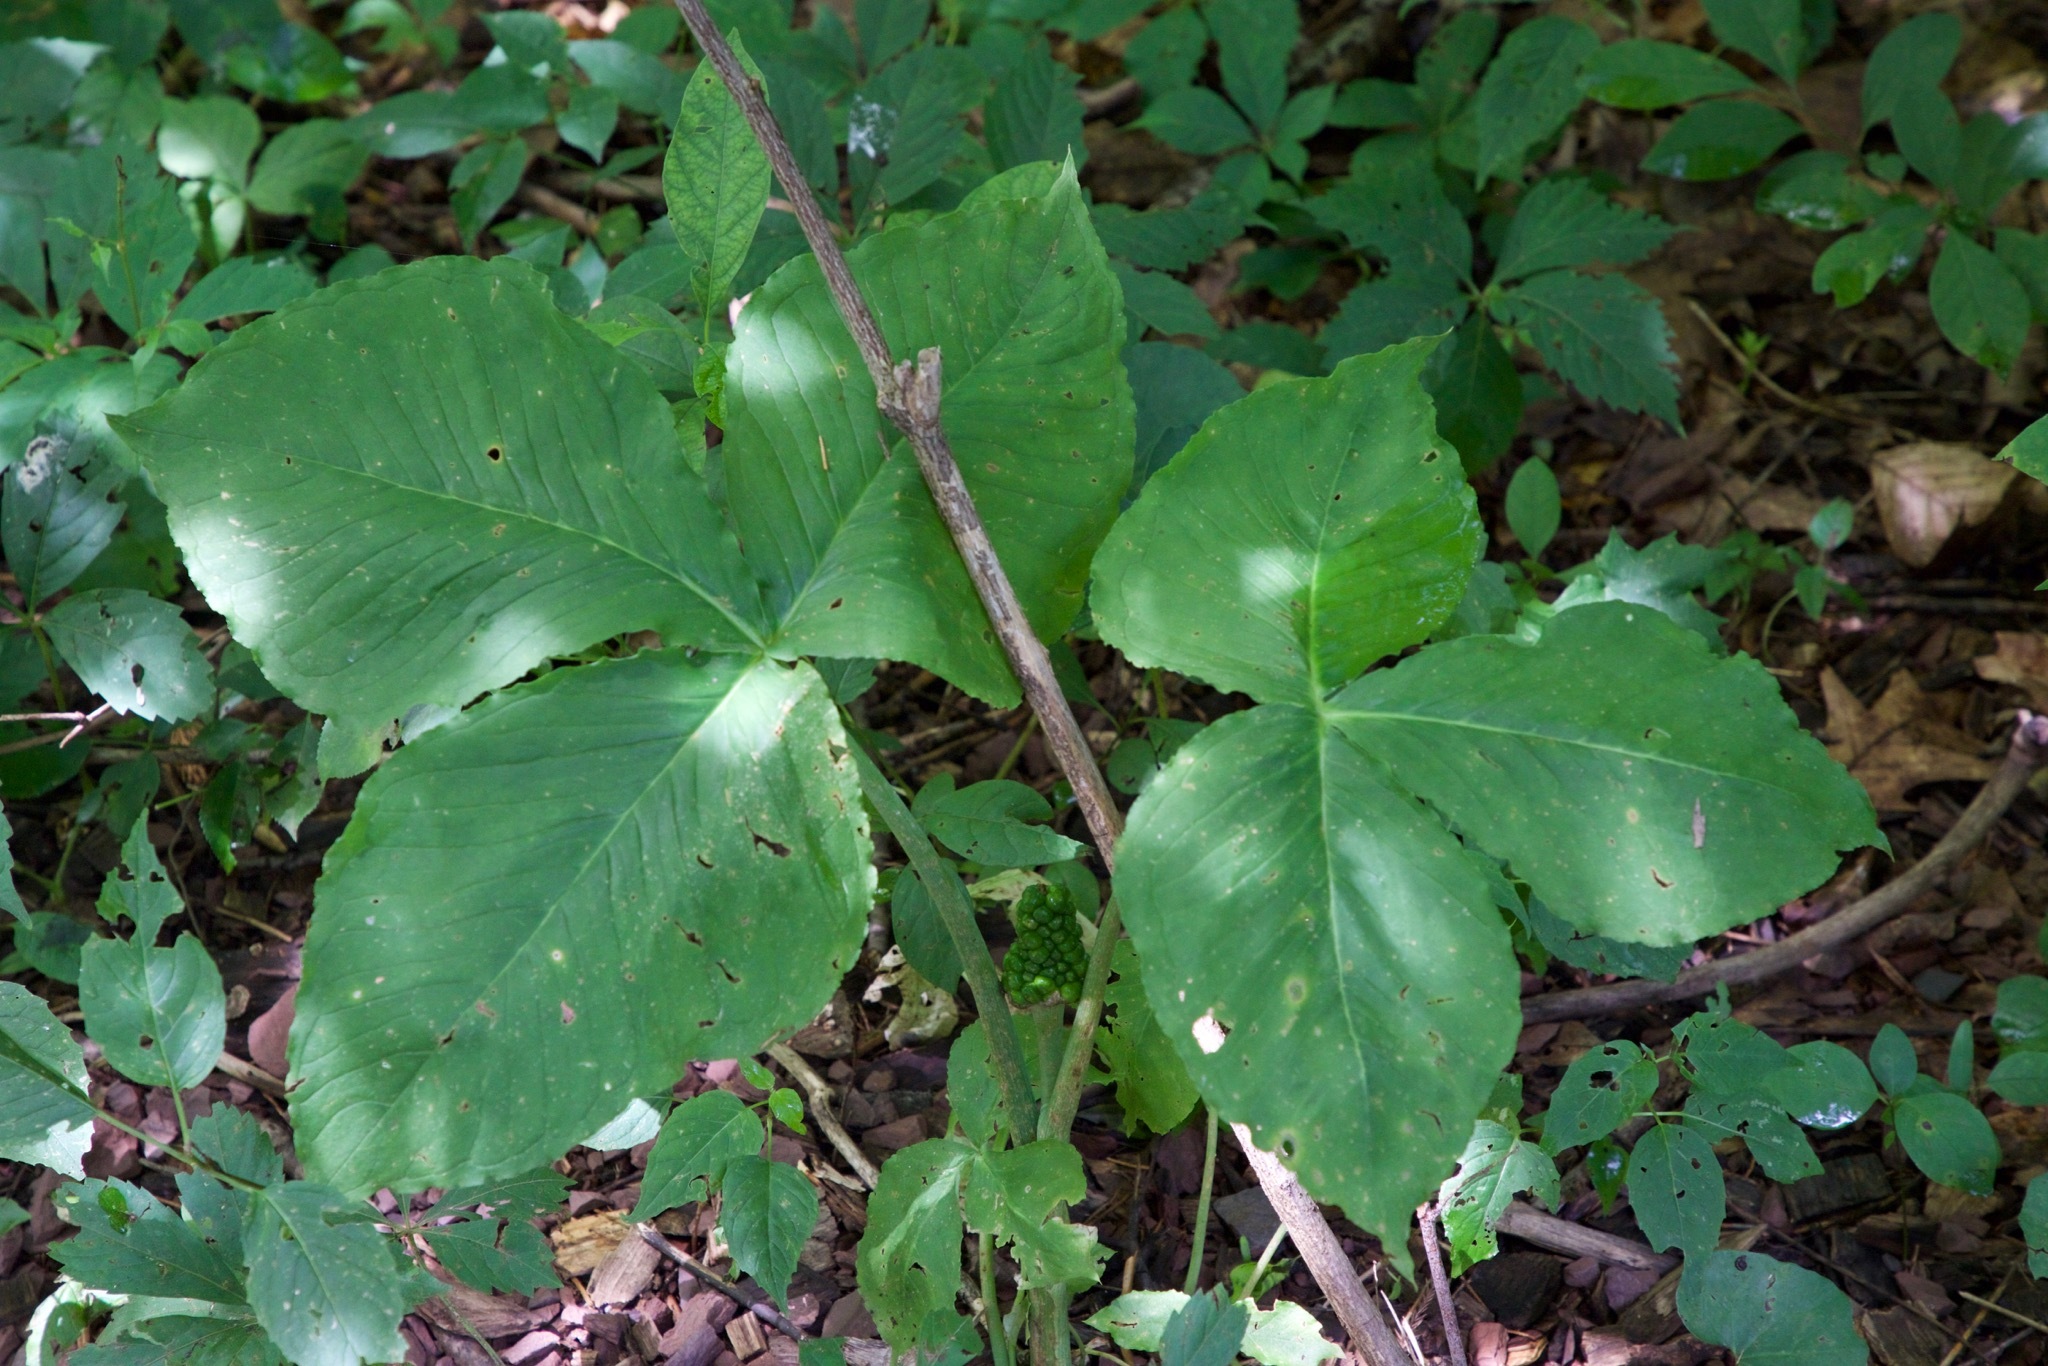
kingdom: Plantae
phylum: Tracheophyta
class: Liliopsida
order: Alismatales
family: Araceae
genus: Arisaema
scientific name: Arisaema triphyllum
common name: Jack-in-the-pulpit
